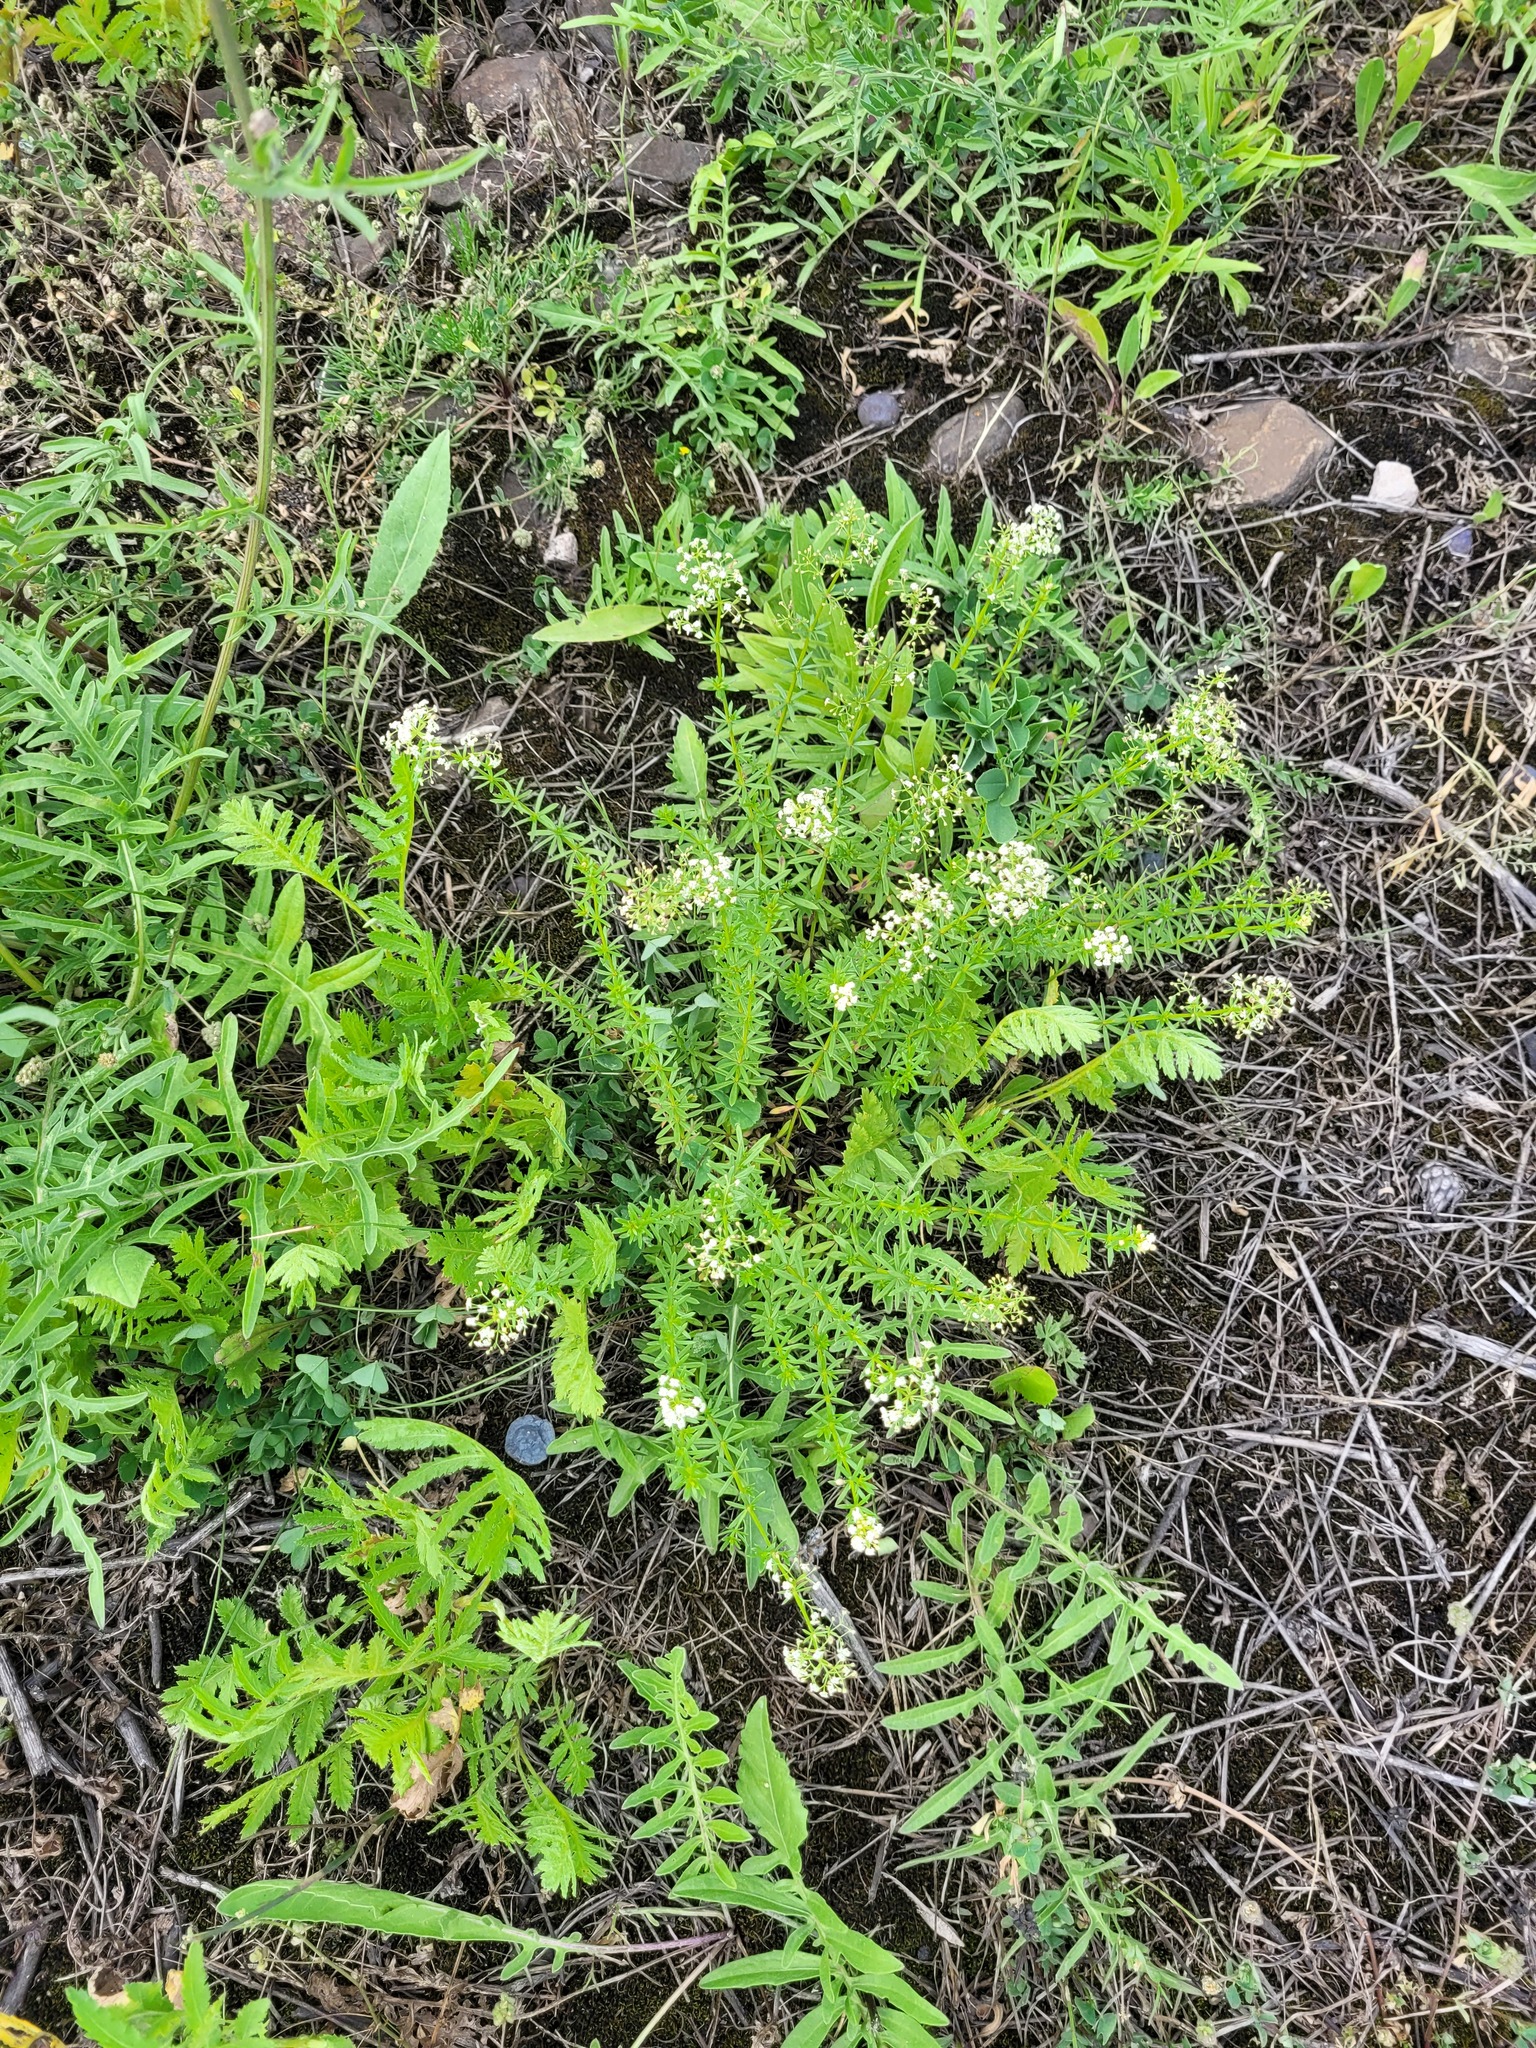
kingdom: Plantae
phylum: Tracheophyta
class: Magnoliopsida
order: Gentianales
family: Rubiaceae
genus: Galium
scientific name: Galium mollugo
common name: Hedge bedstraw
